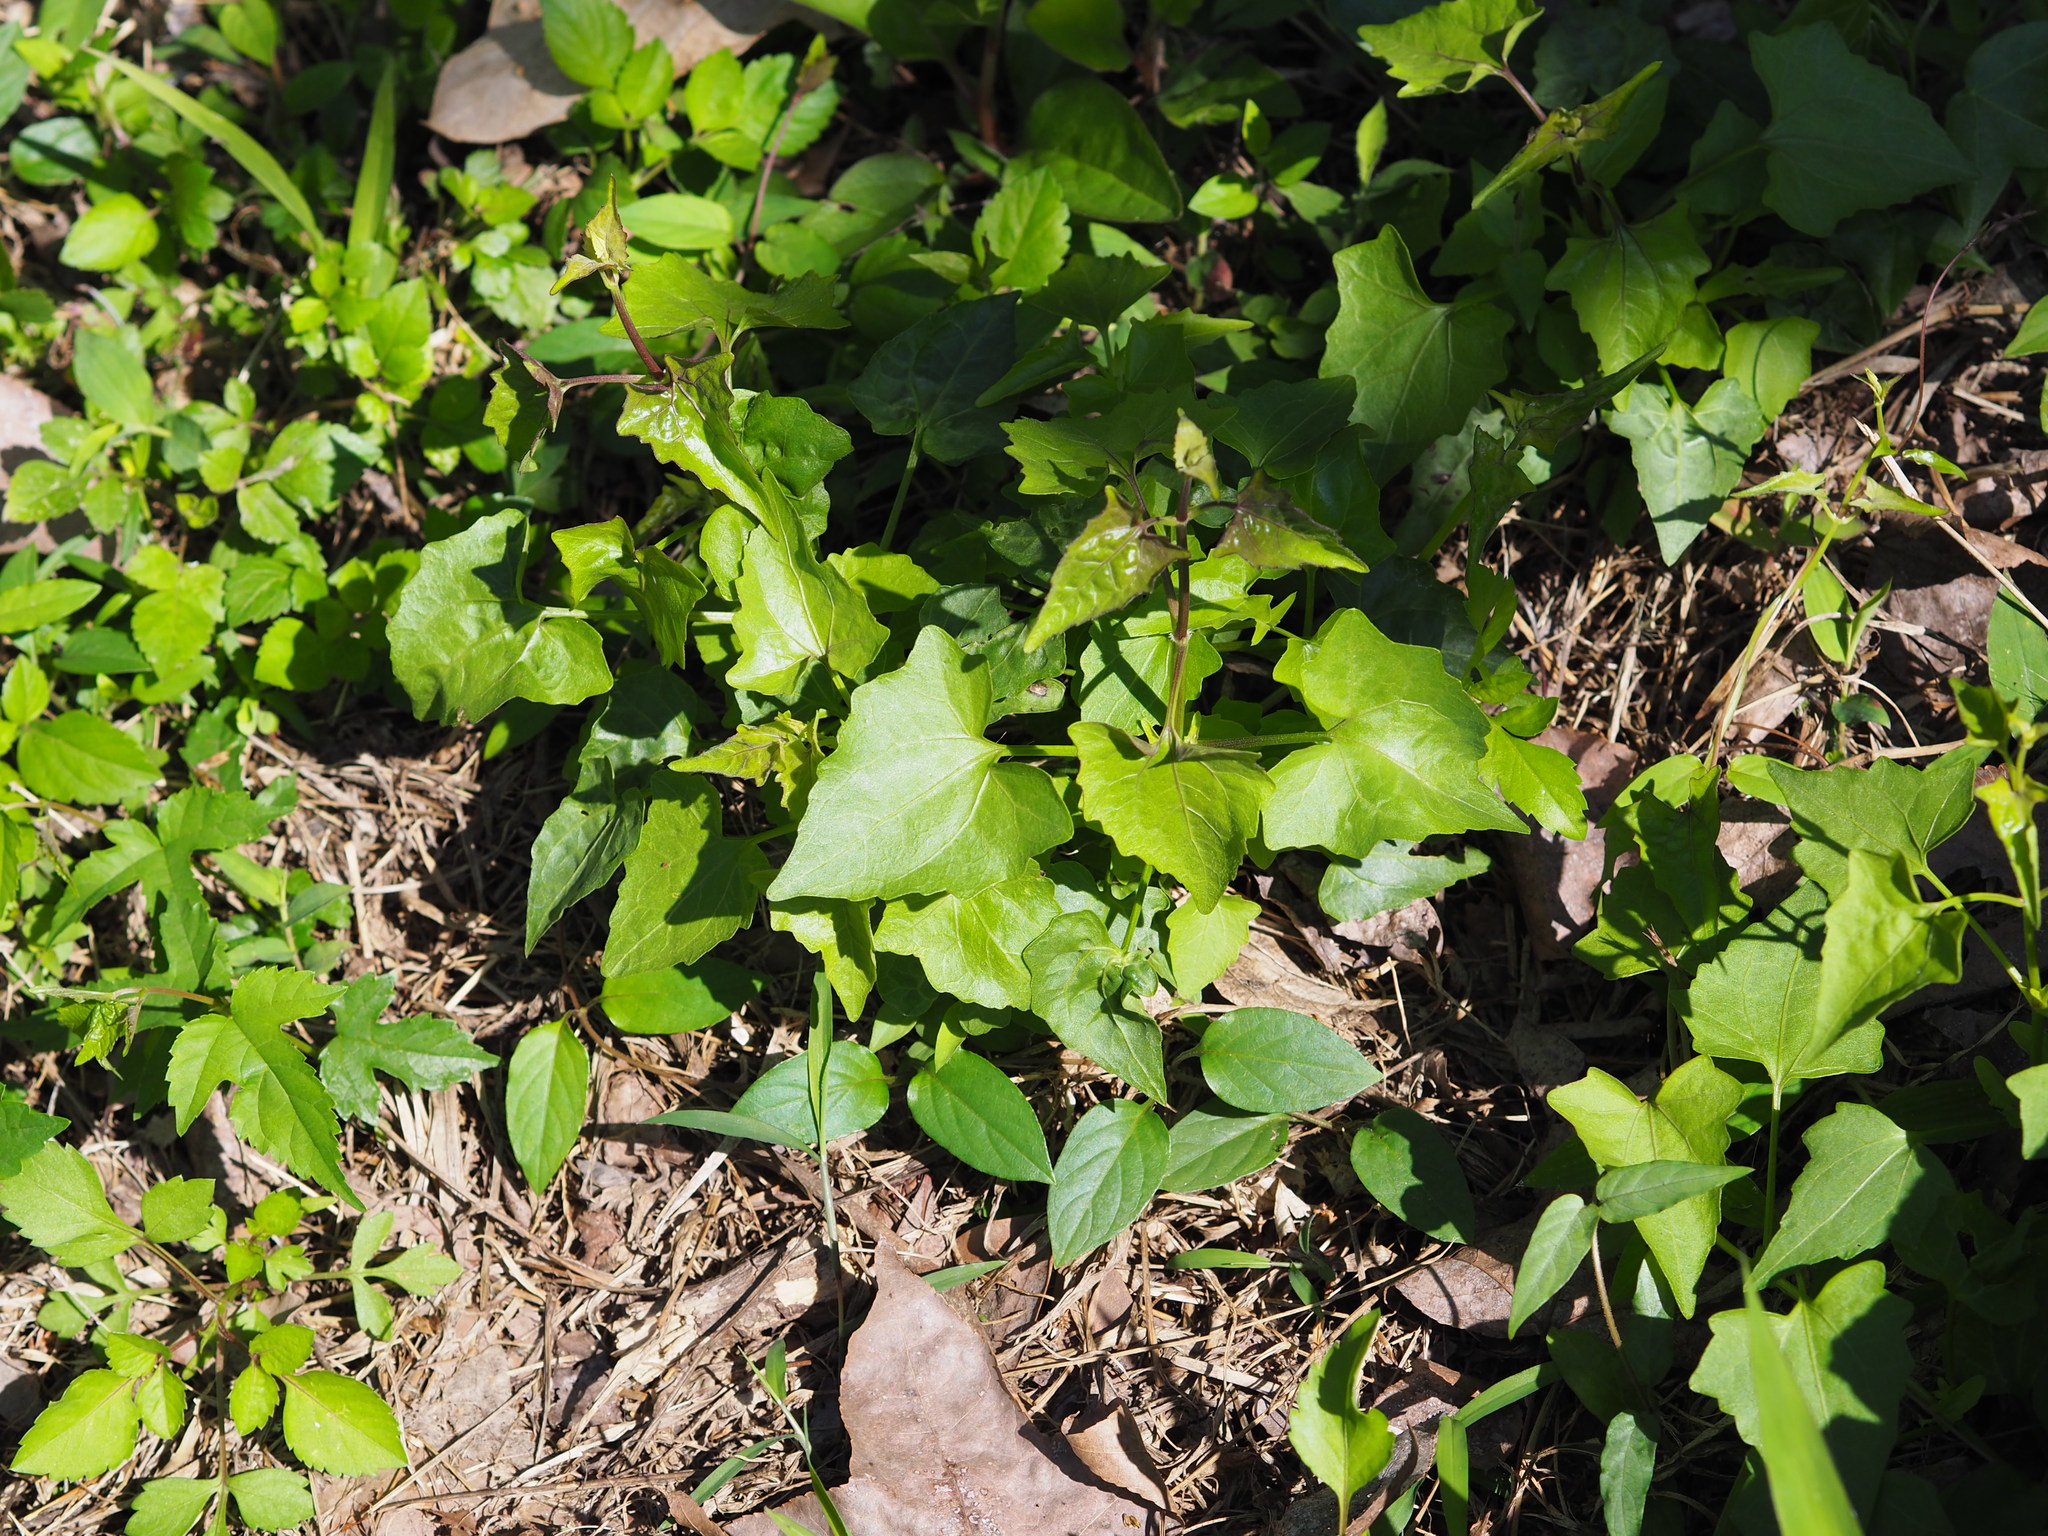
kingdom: Plantae
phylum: Tracheophyta
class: Magnoliopsida
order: Asterales
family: Asteraceae
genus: Mikania
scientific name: Mikania micrantha
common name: Mile-a-minute
